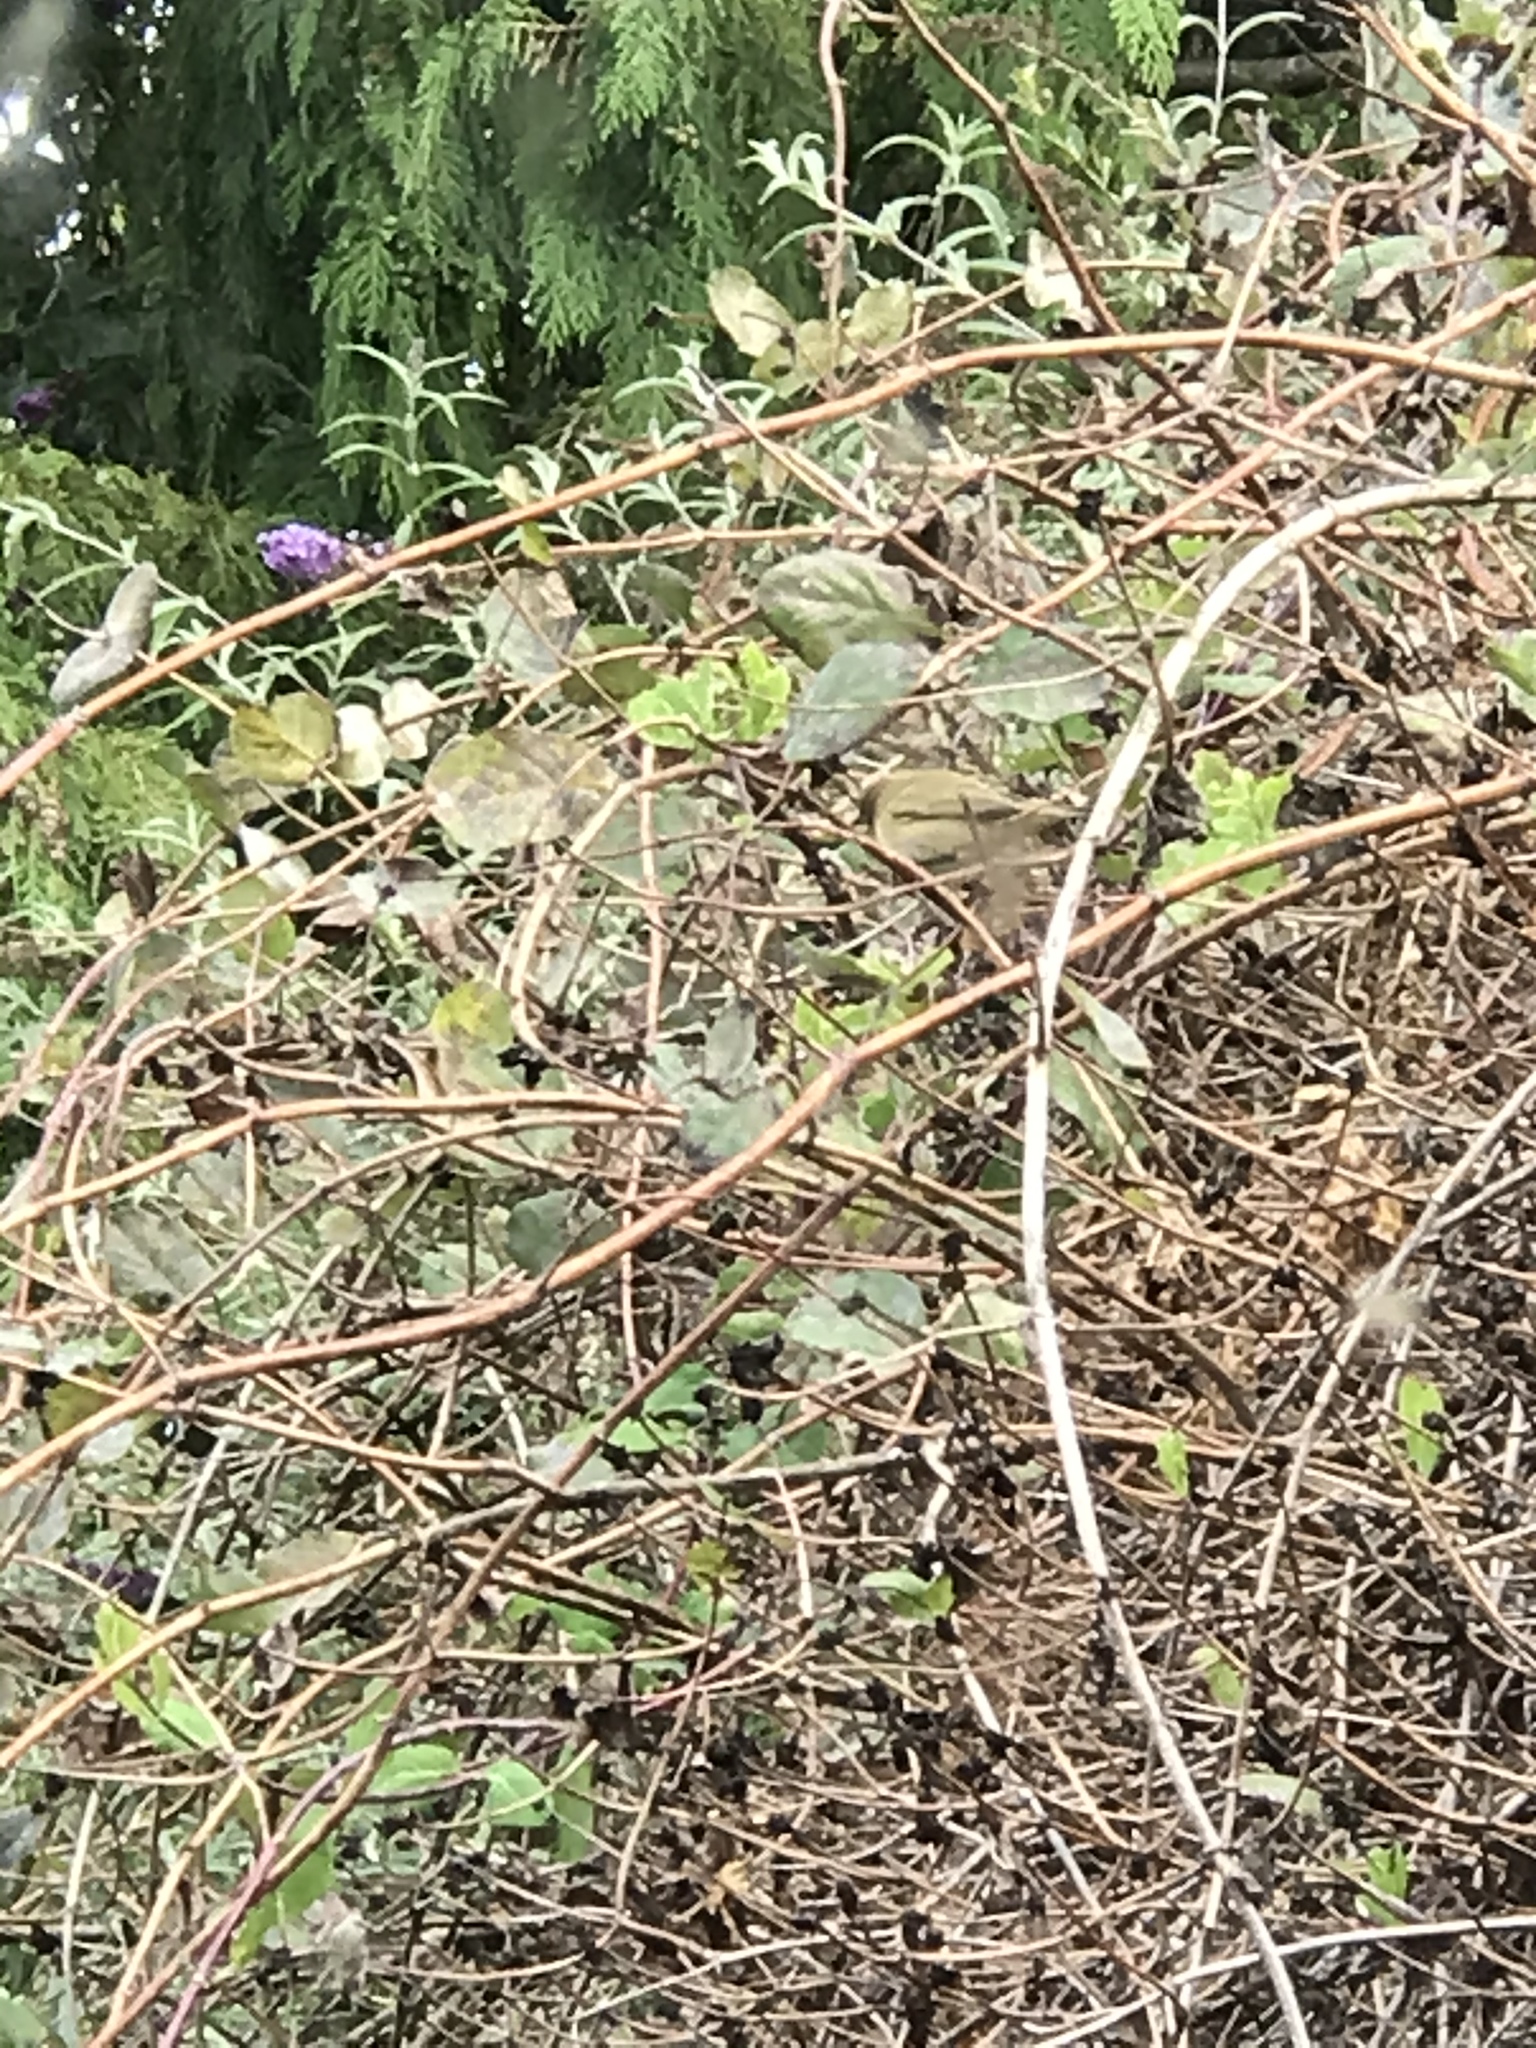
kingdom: Animalia
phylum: Chordata
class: Aves
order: Passeriformes
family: Phylloscopidae
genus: Phylloscopus
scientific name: Phylloscopus collybita
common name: Common chiffchaff
